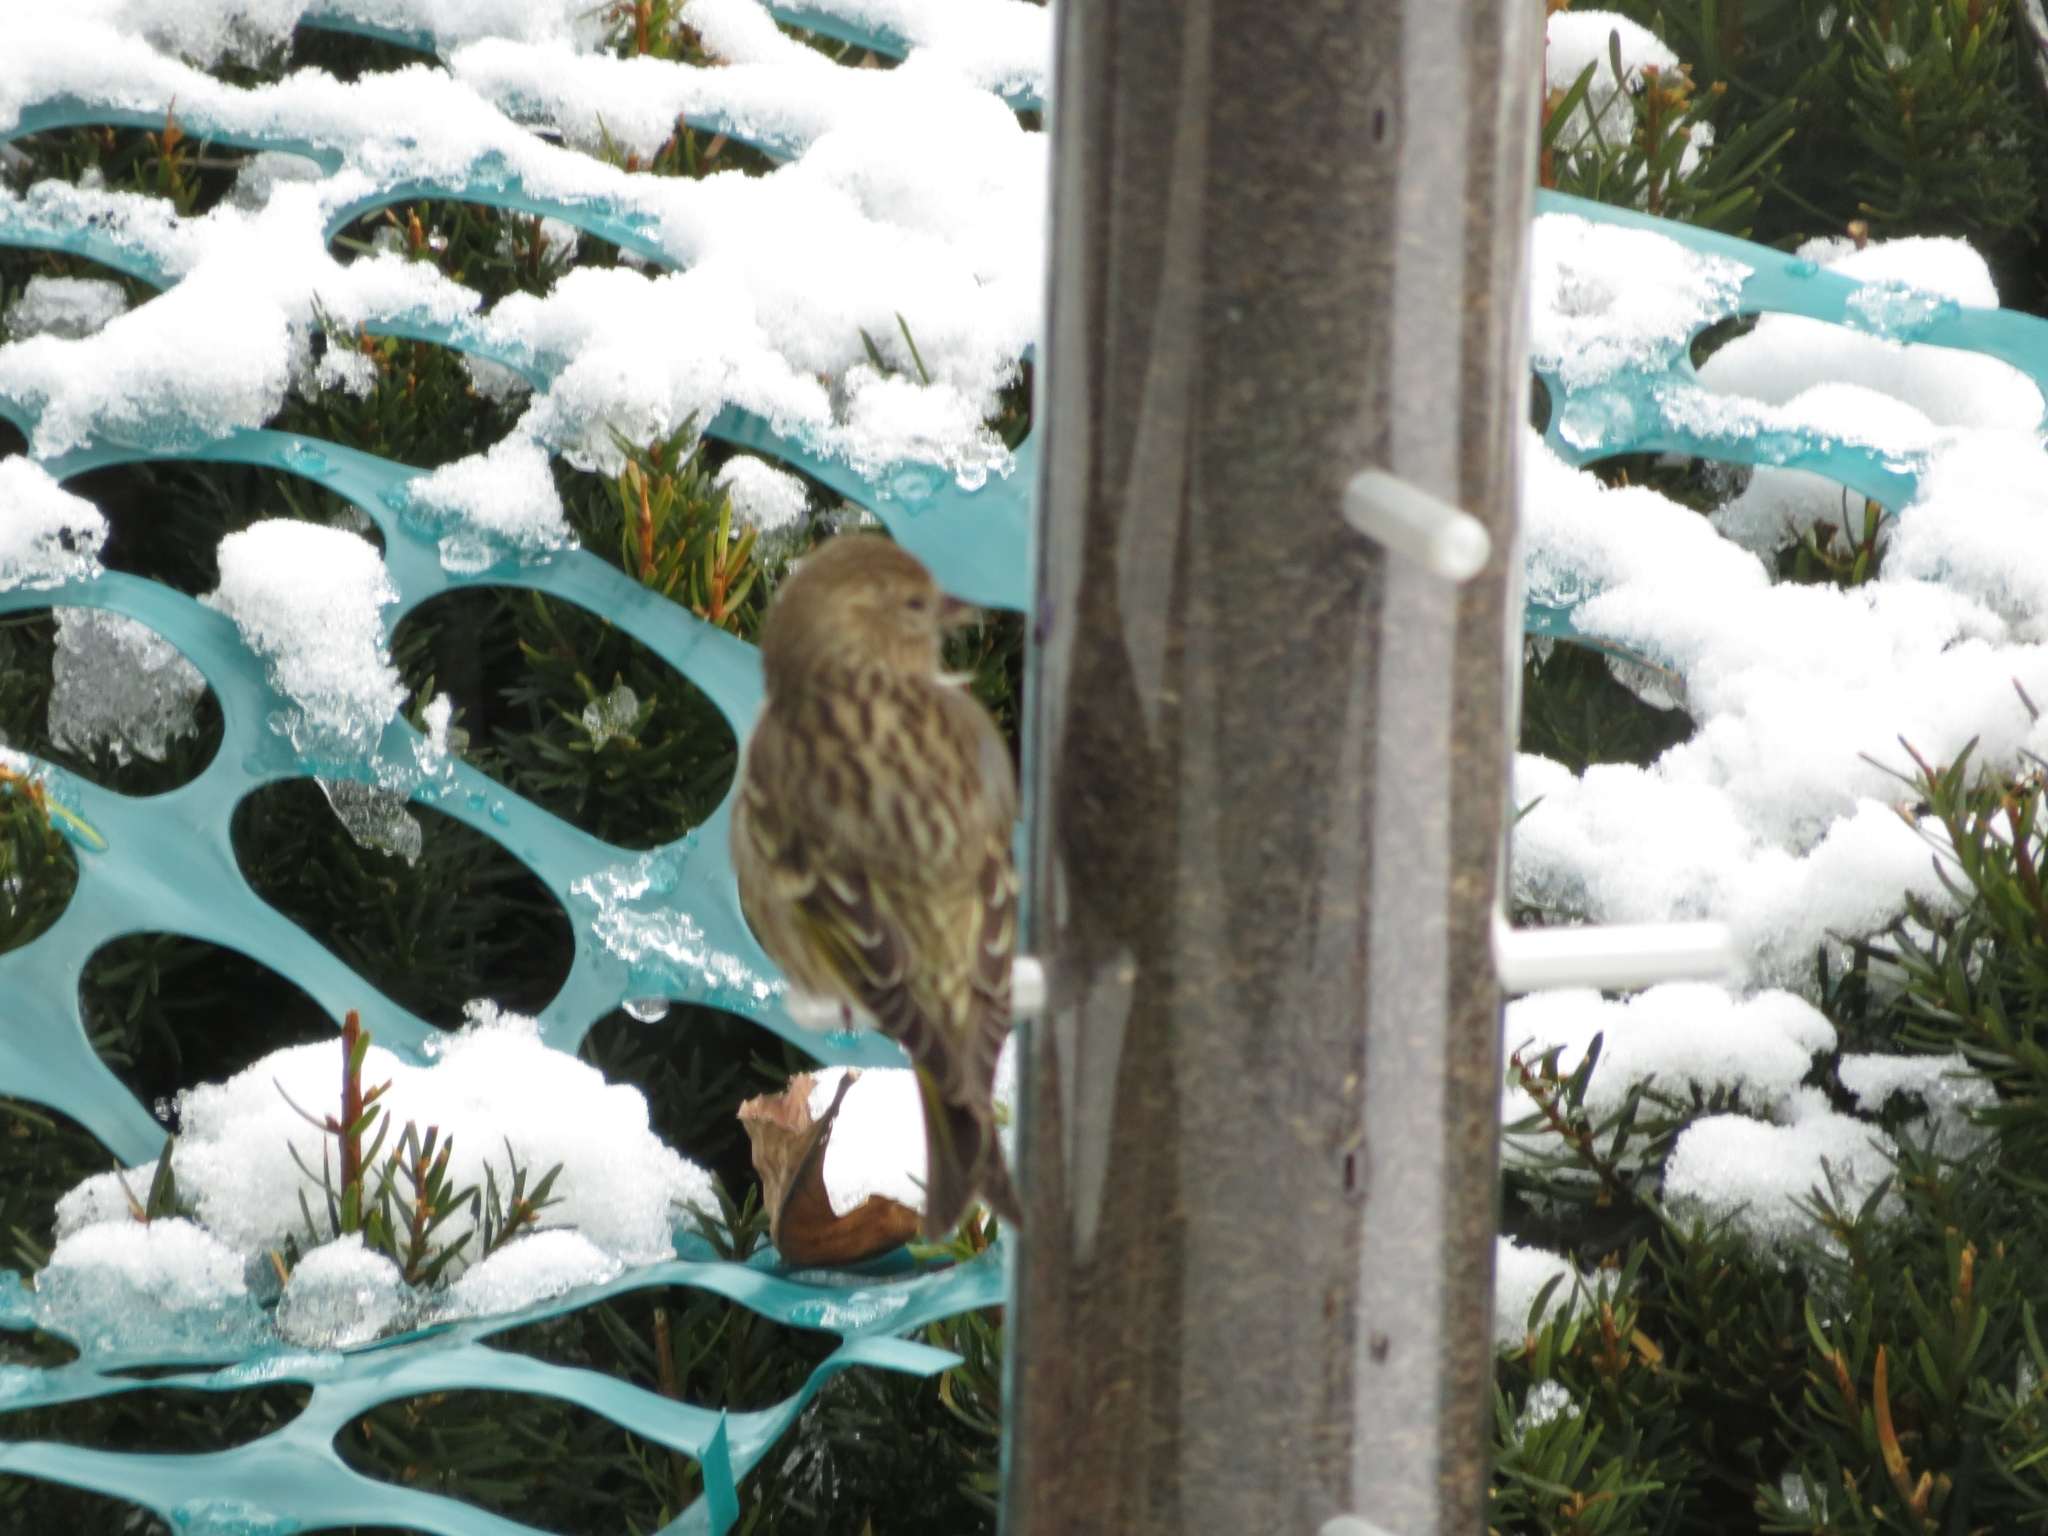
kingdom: Animalia
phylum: Chordata
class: Aves
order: Passeriformes
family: Fringillidae
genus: Spinus
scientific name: Spinus pinus
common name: Pine siskin
